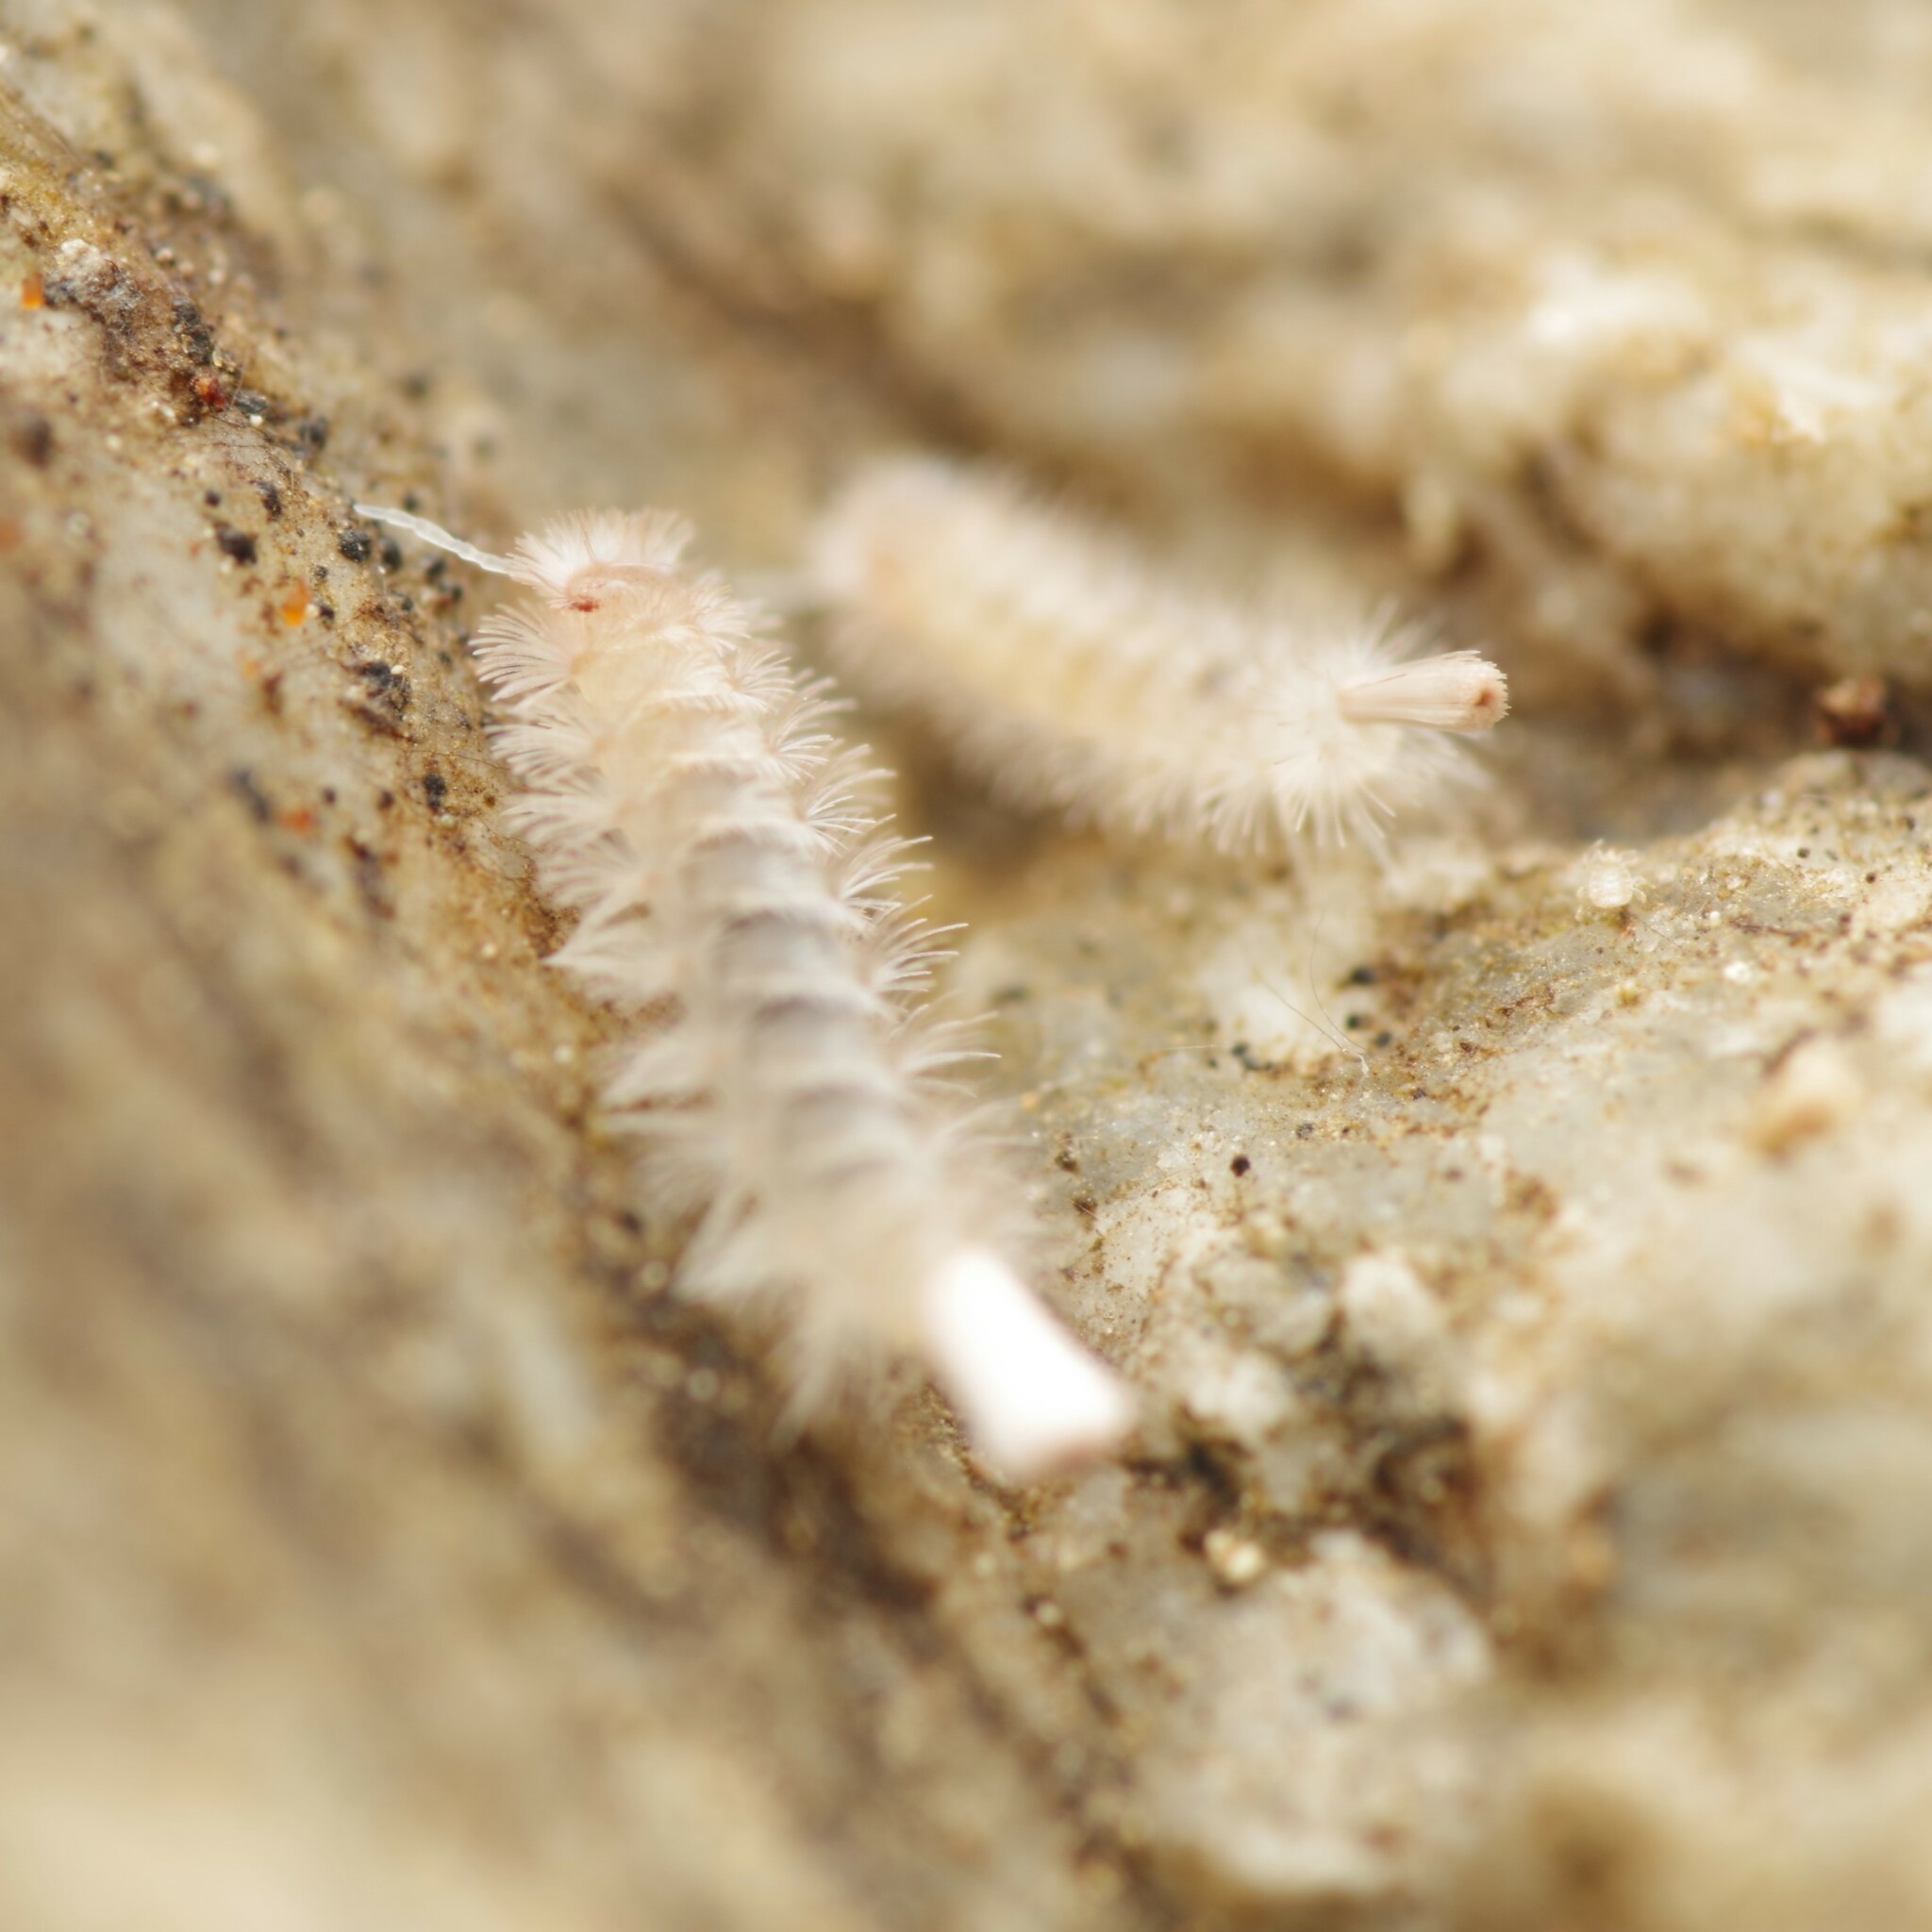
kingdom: Animalia
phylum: Arthropoda
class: Diplopoda
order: Polyxenida
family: Lophoproctidae
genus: Lophoproctus
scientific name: Lophoproctus lucidus
